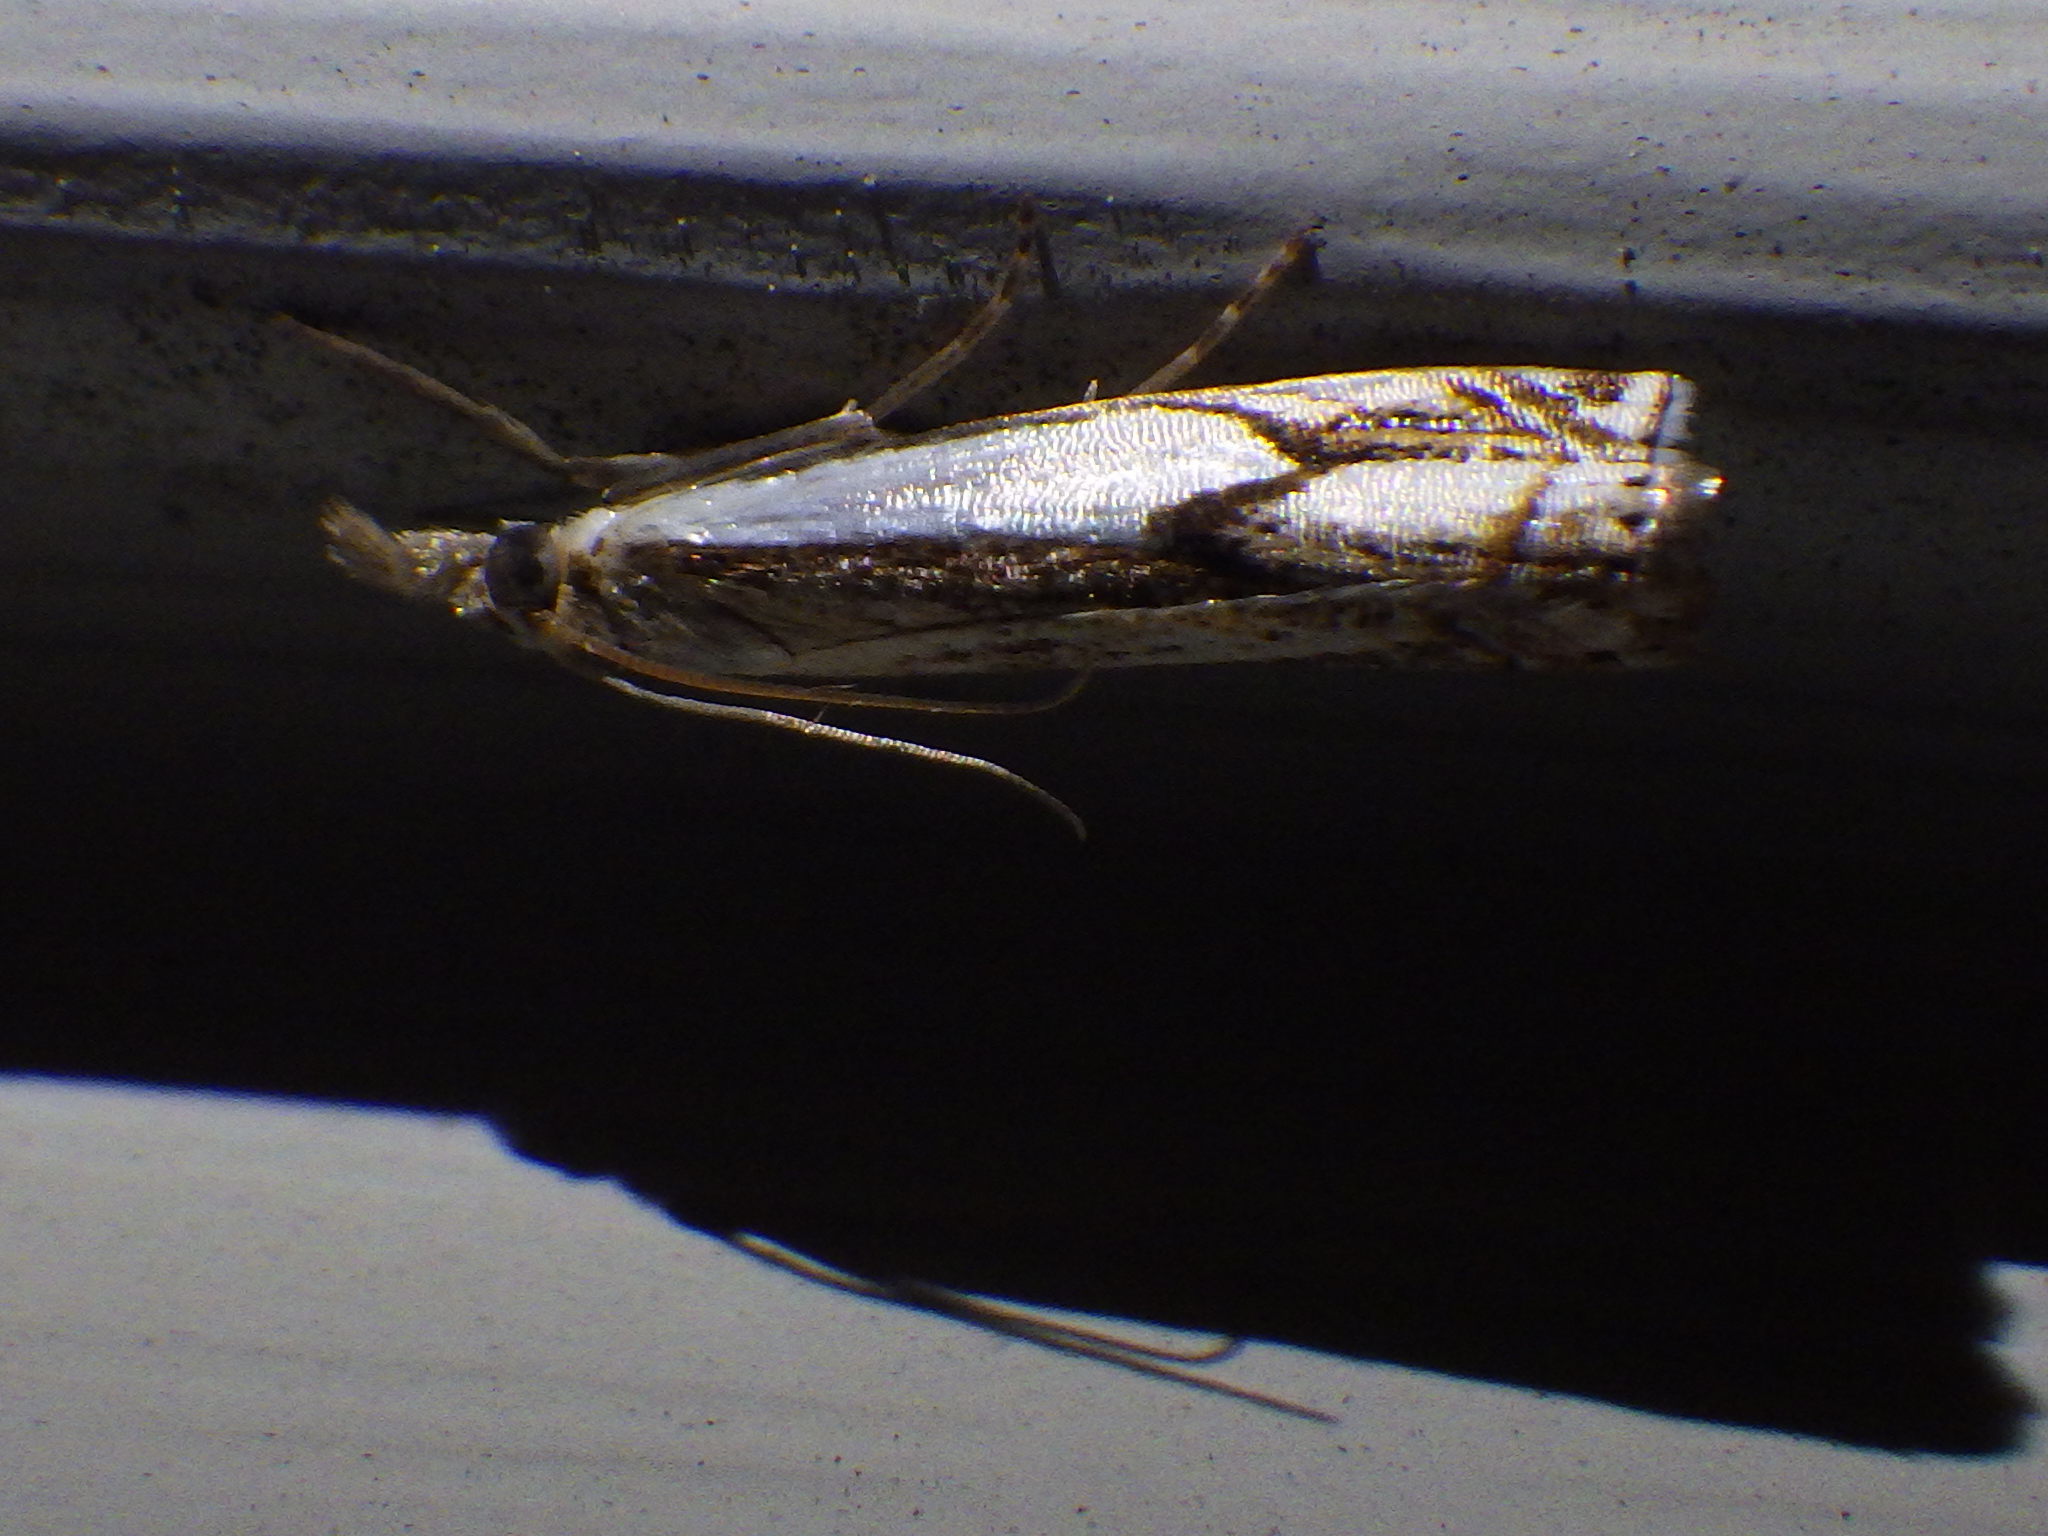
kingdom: Animalia
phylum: Arthropoda
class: Insecta
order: Lepidoptera
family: Crambidae
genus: Crambus
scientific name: Crambus agitatellus
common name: Double-banded grass-veneer
